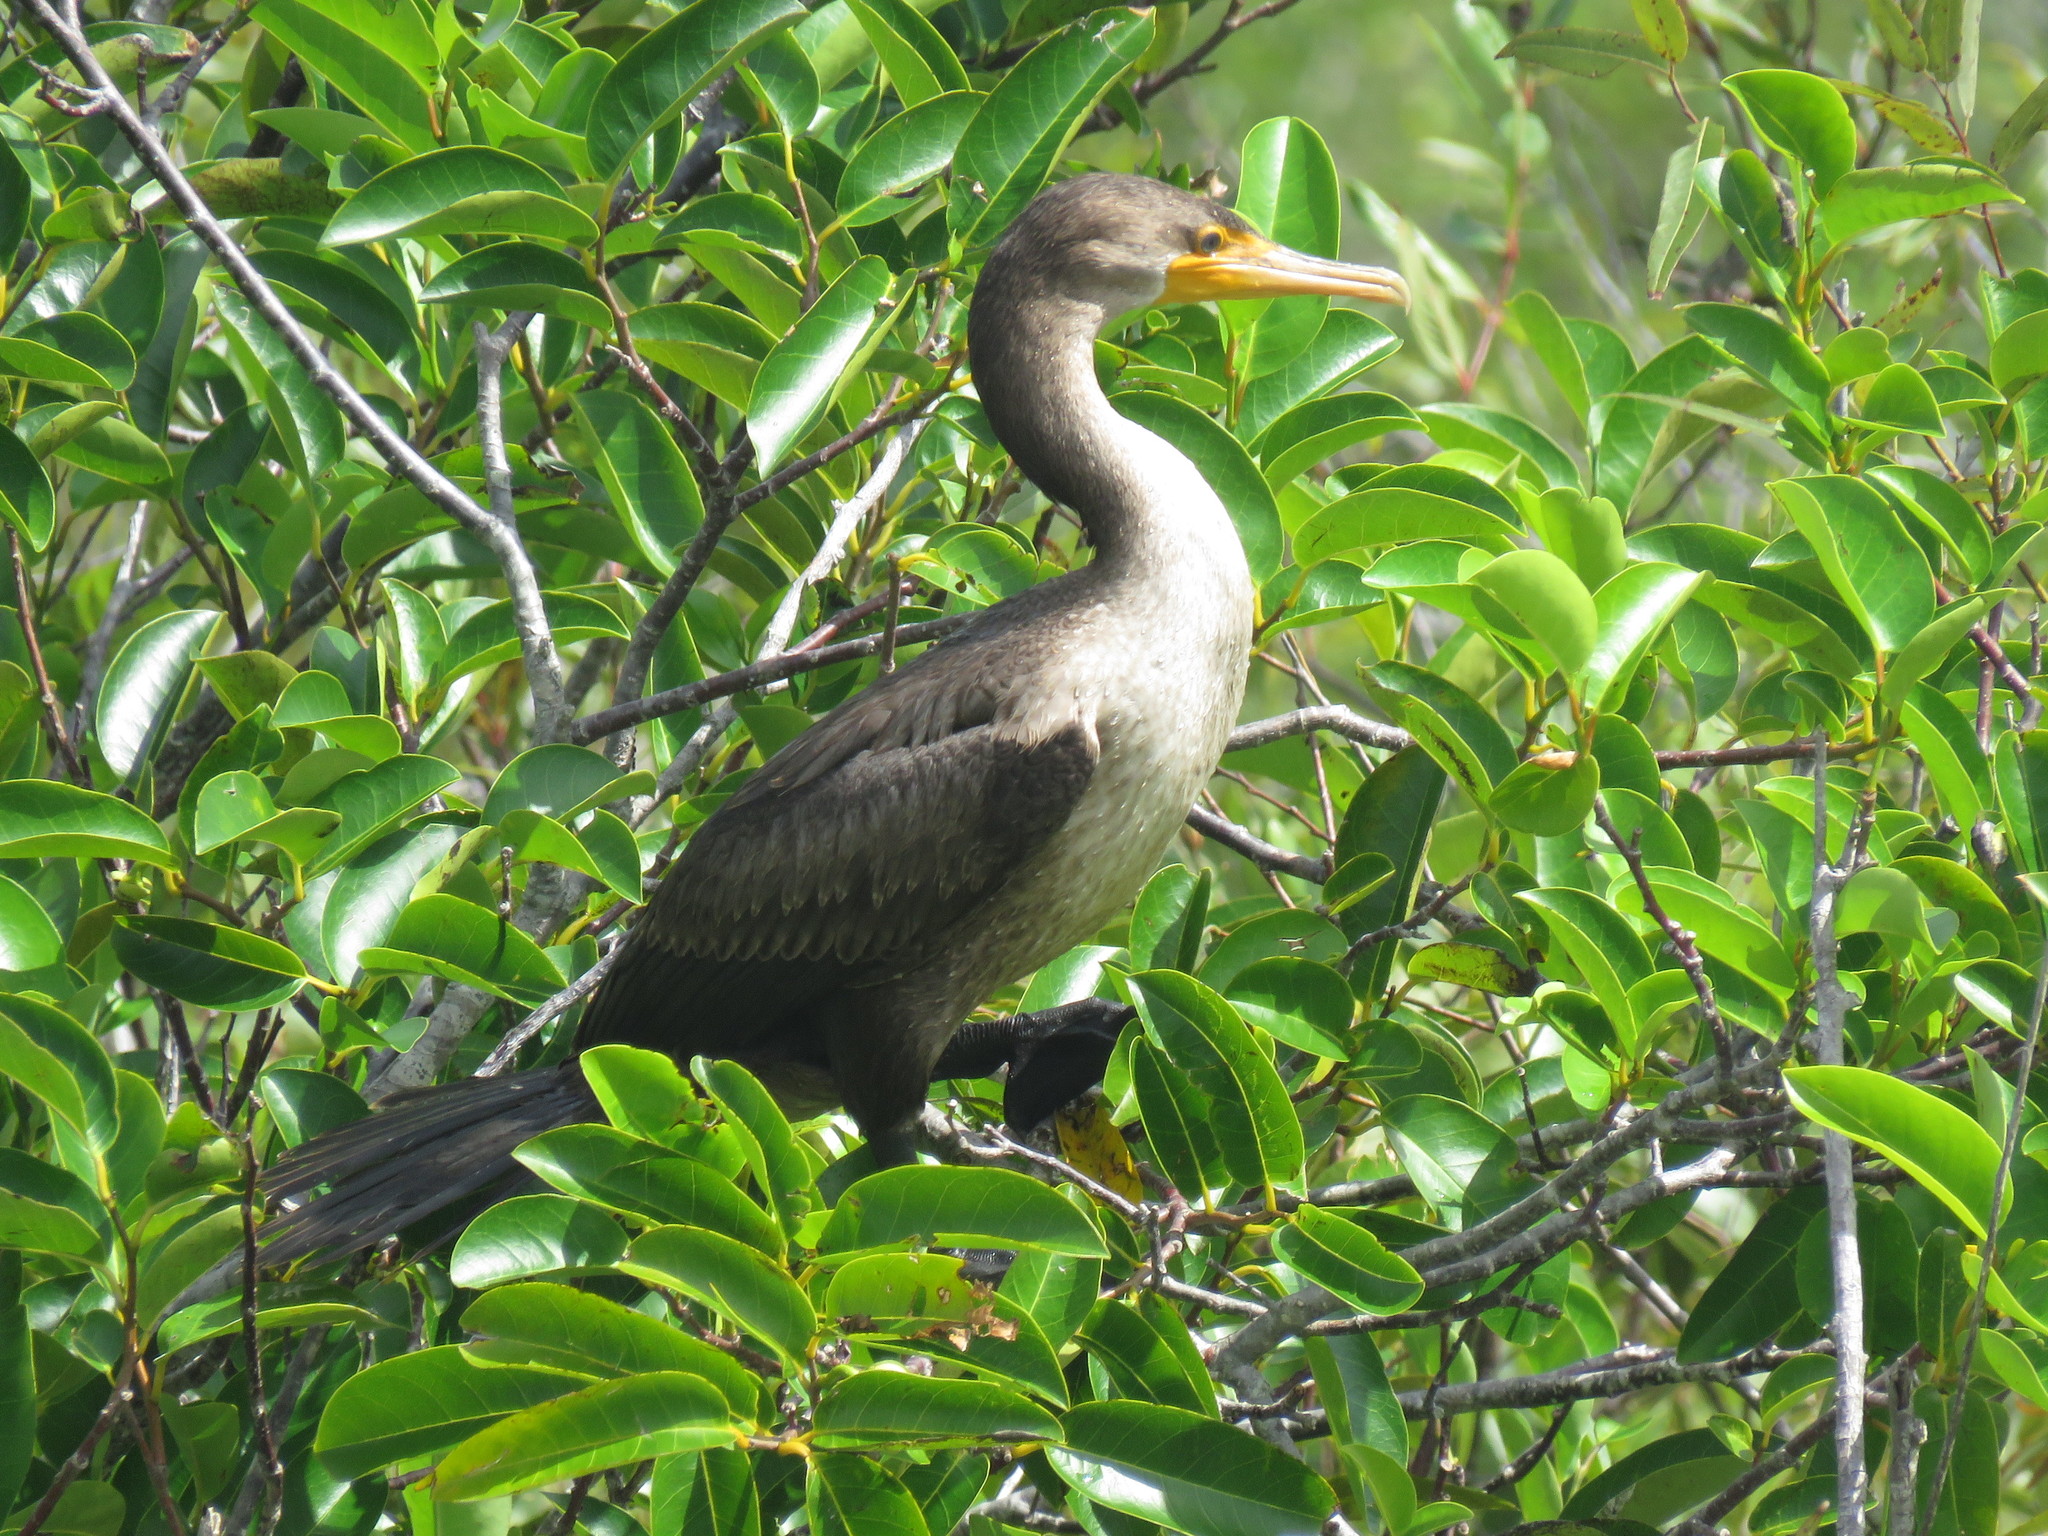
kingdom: Animalia
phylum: Chordata
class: Aves
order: Suliformes
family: Phalacrocoracidae
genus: Phalacrocorax
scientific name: Phalacrocorax auritus
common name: Double-crested cormorant
